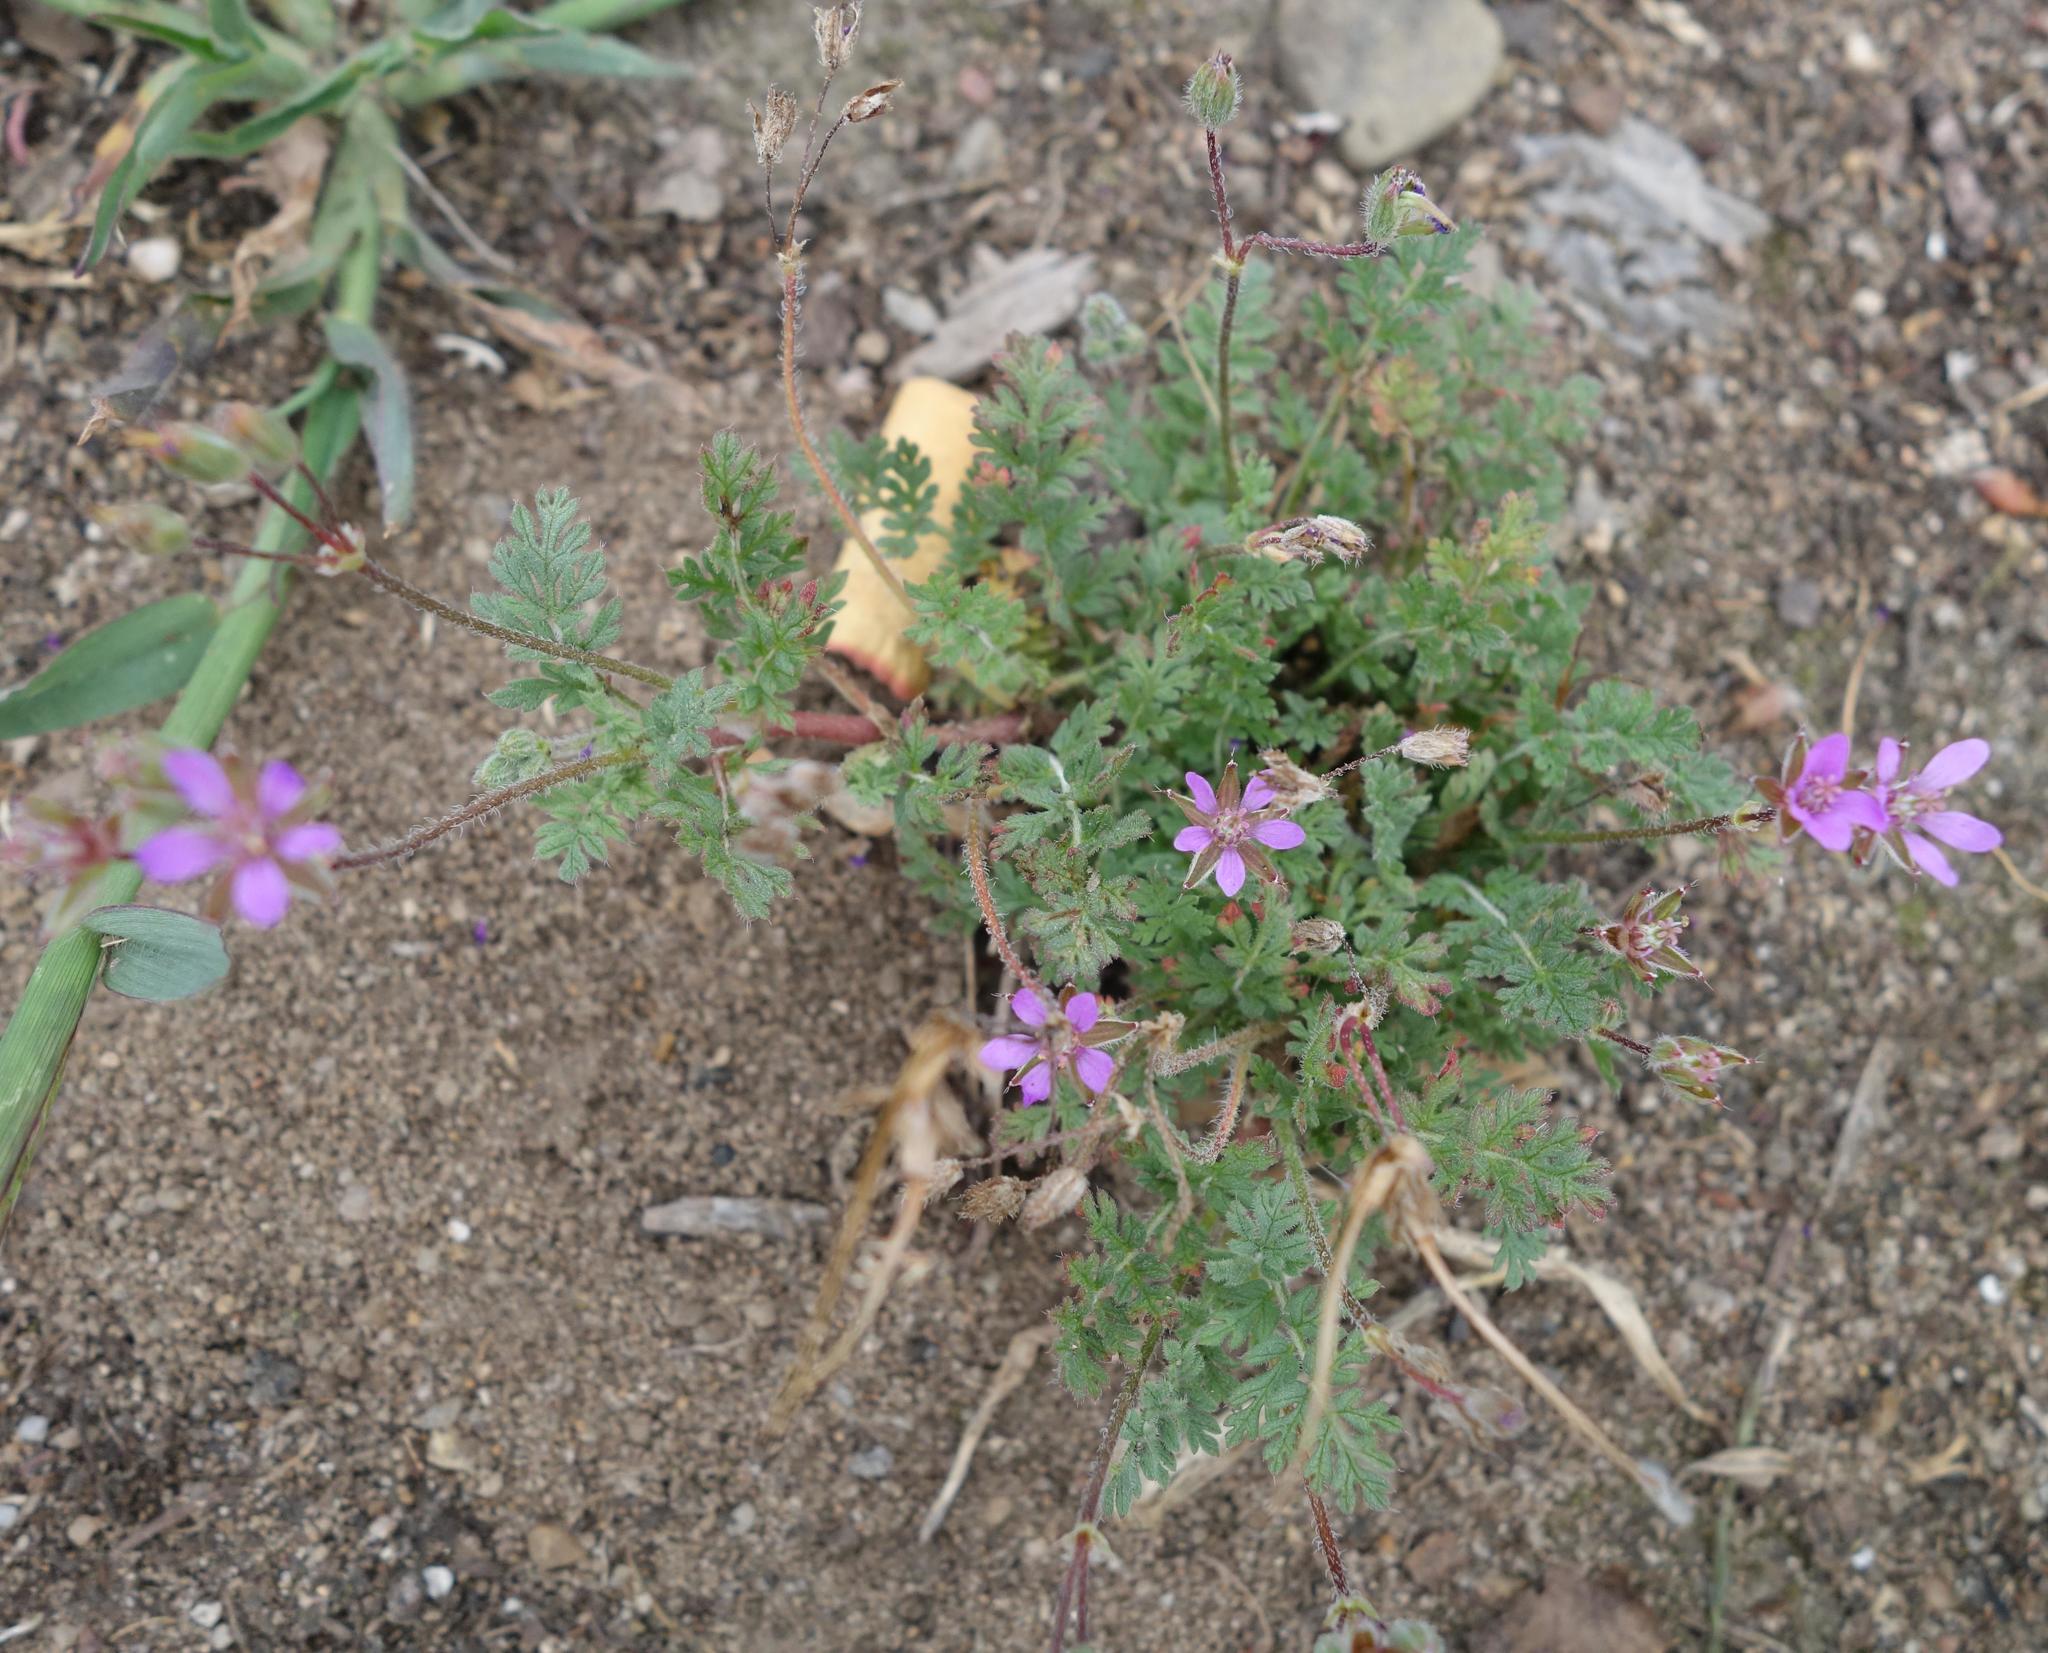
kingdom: Plantae
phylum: Tracheophyta
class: Magnoliopsida
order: Geraniales
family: Geraniaceae
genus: Erodium
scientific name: Erodium cicutarium
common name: Common stork's-bill
